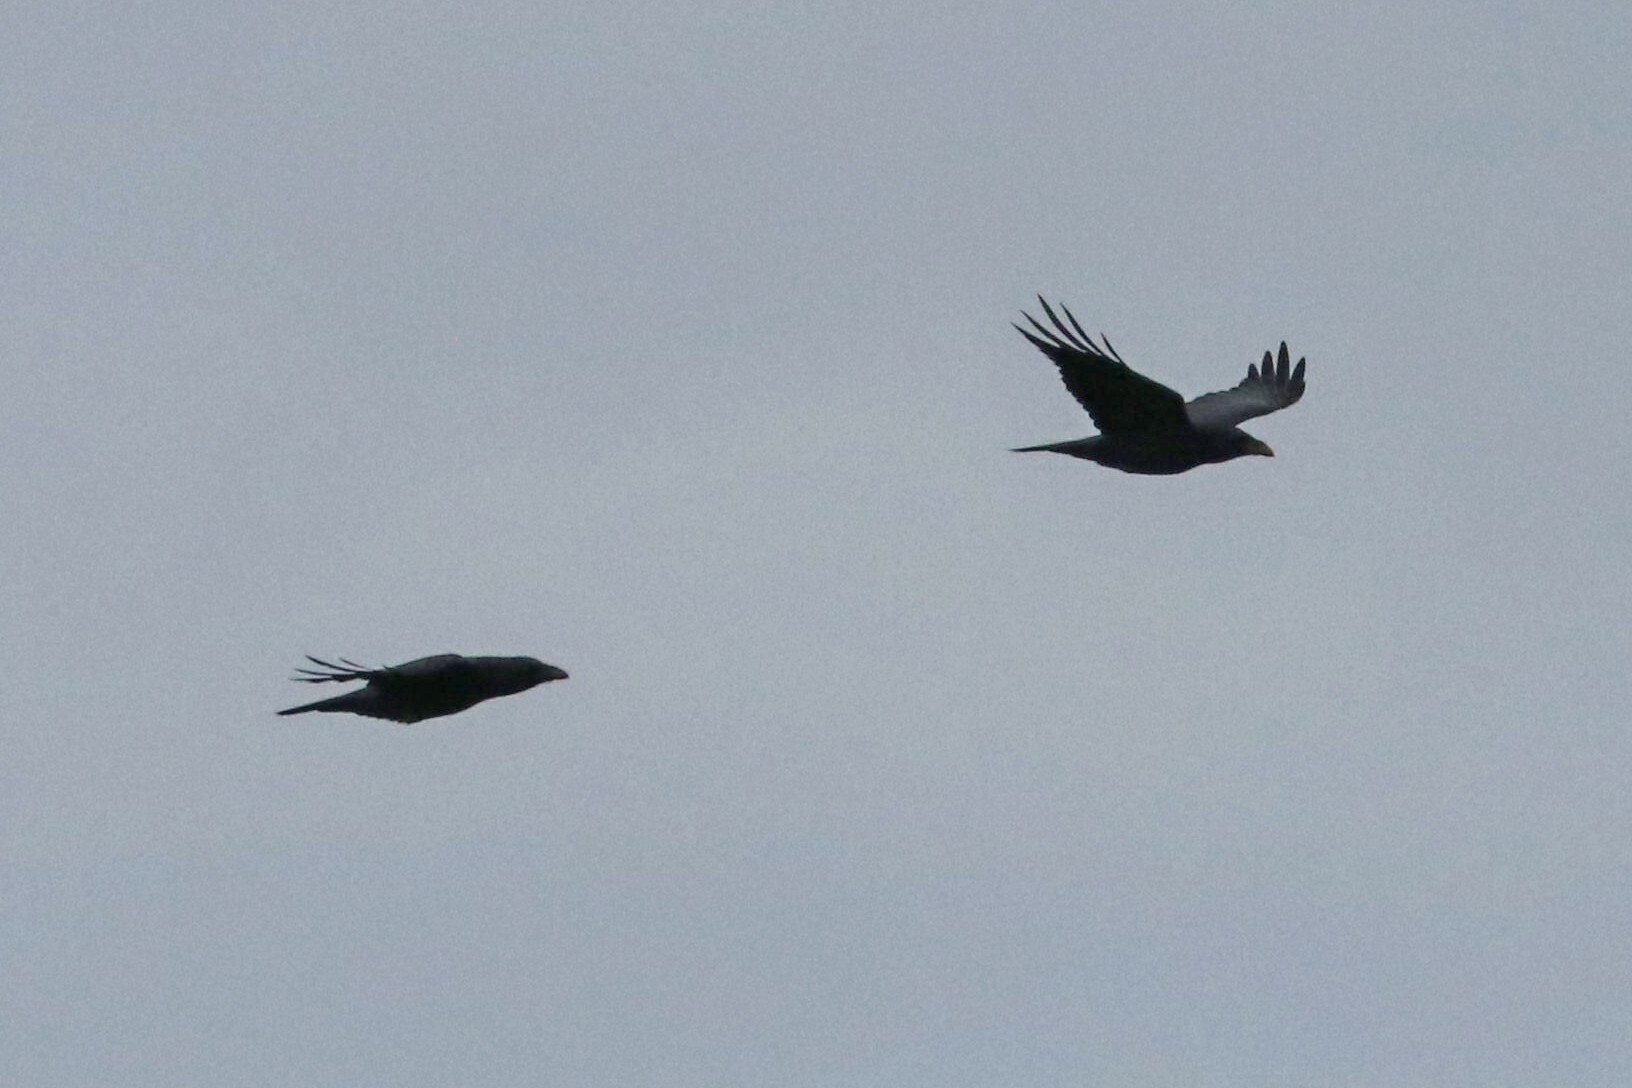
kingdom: Animalia
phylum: Chordata
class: Aves
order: Passeriformes
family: Corvidae
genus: Corvus
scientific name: Corvus corax
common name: Common raven
